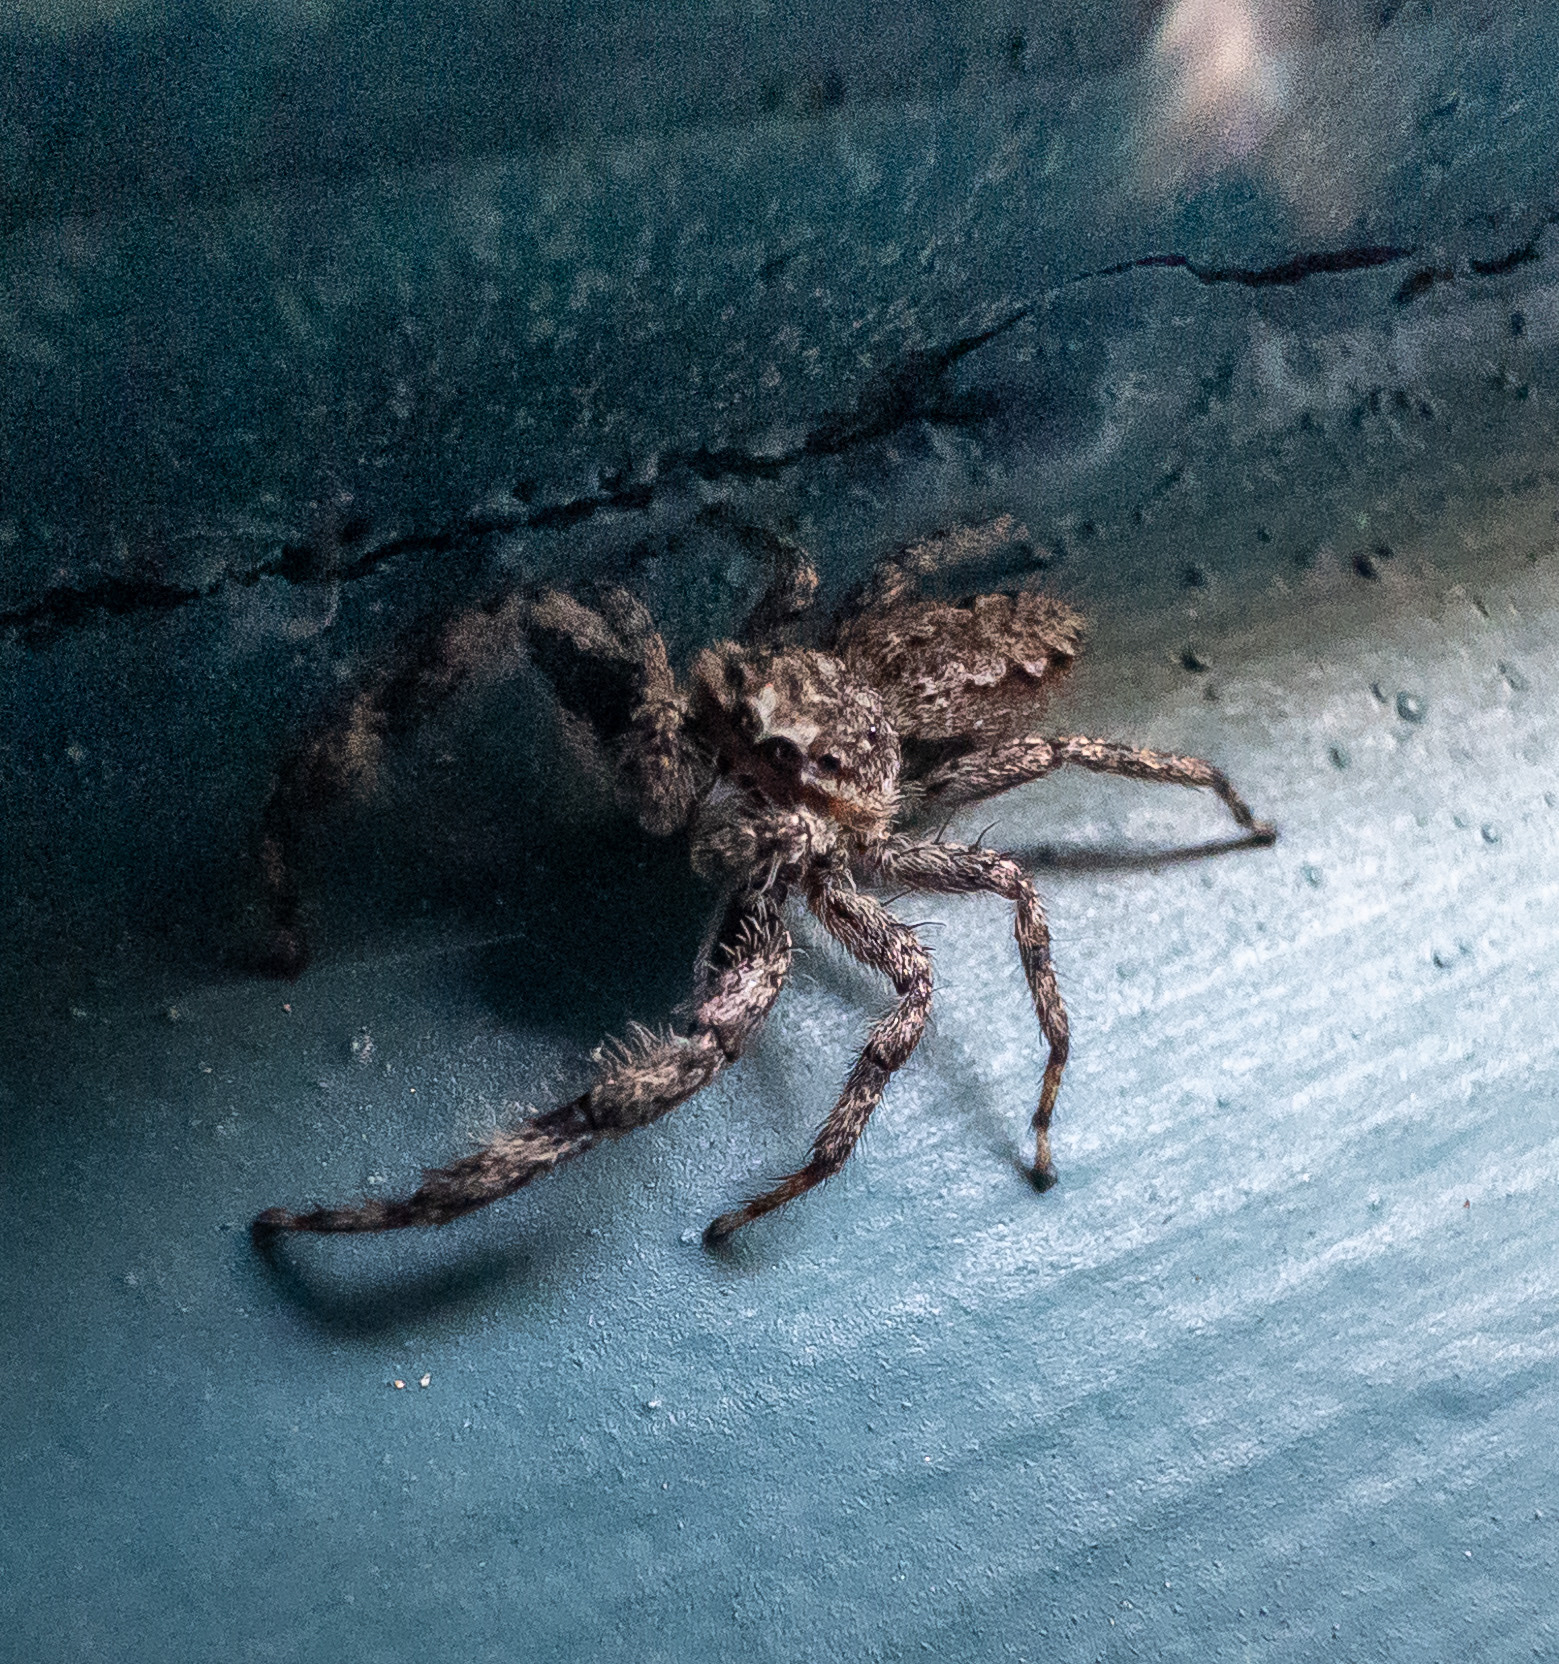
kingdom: Animalia
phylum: Arthropoda
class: Arachnida
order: Araneae
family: Salticidae
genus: Platycryptus
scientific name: Platycryptus undatus
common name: Tan jumping spider
